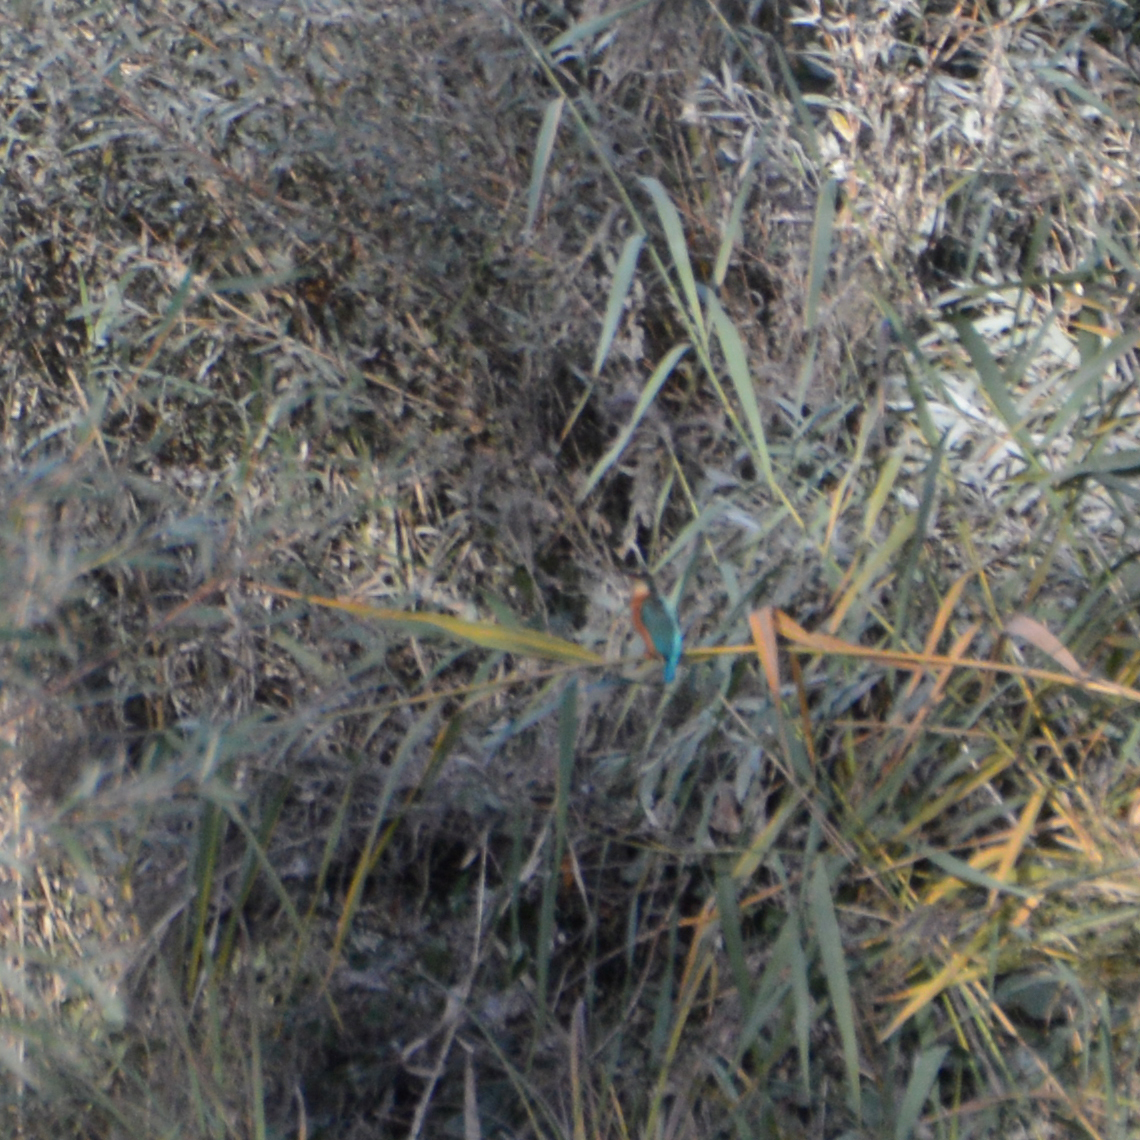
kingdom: Animalia
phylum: Chordata
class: Aves
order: Coraciiformes
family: Alcedinidae
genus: Alcedo
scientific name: Alcedo atthis
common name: Common kingfisher
